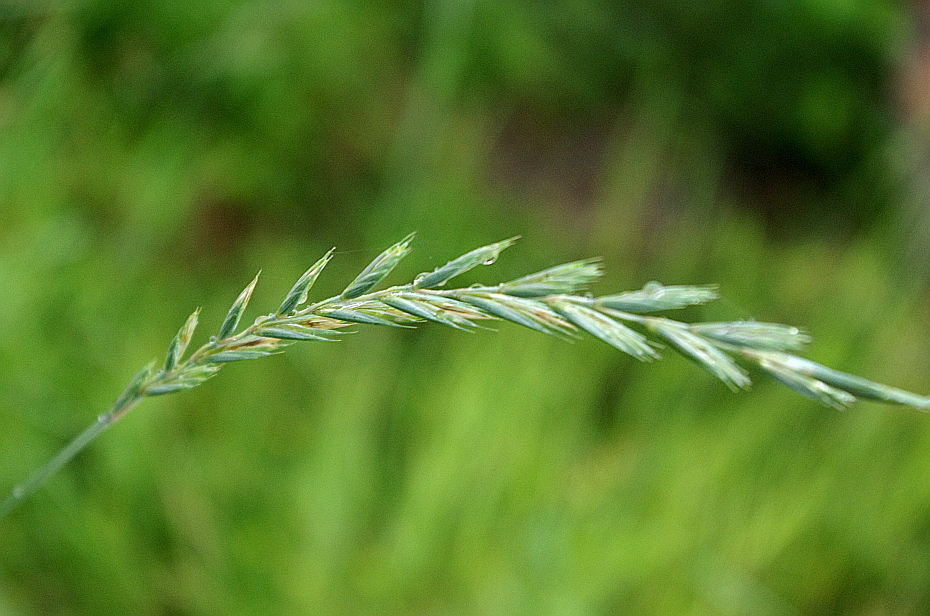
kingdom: Plantae
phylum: Tracheophyta
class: Liliopsida
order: Poales
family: Poaceae
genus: Elymus
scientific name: Elymus repens
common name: Quackgrass
